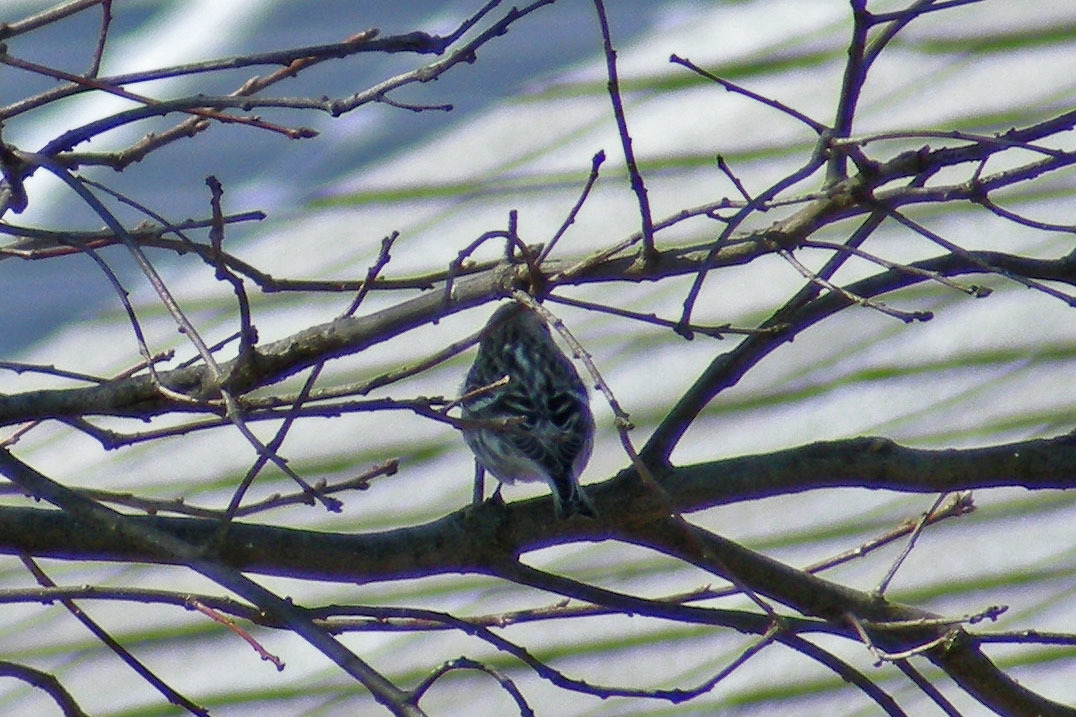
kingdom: Animalia
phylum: Chordata
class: Aves
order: Passeriformes
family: Fringillidae
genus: Acanthis
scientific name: Acanthis flammea
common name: Common redpoll
